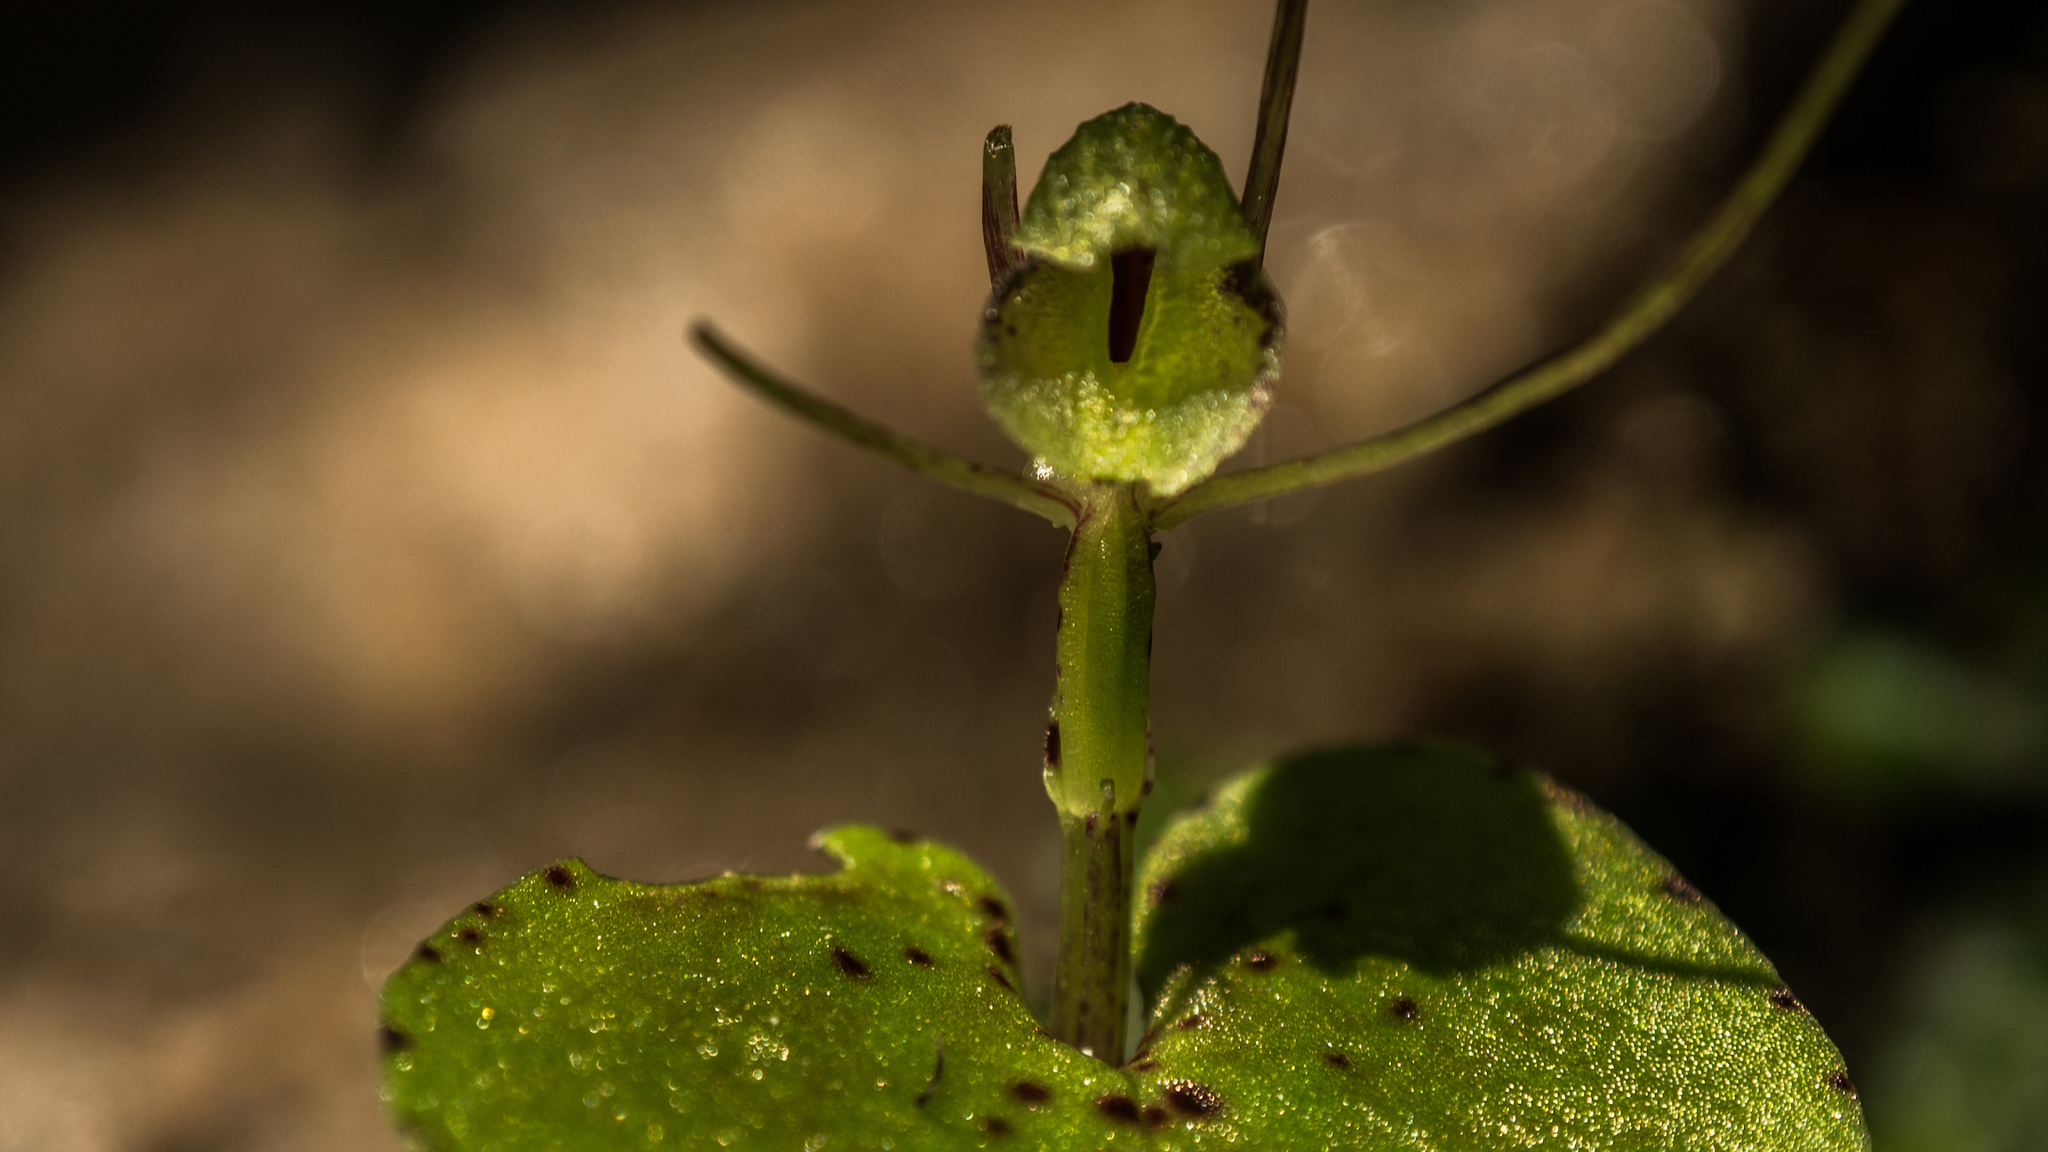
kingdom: Plantae
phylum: Tracheophyta
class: Liliopsida
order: Asparagales
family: Orchidaceae
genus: Corybas
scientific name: Corybas rivularis
